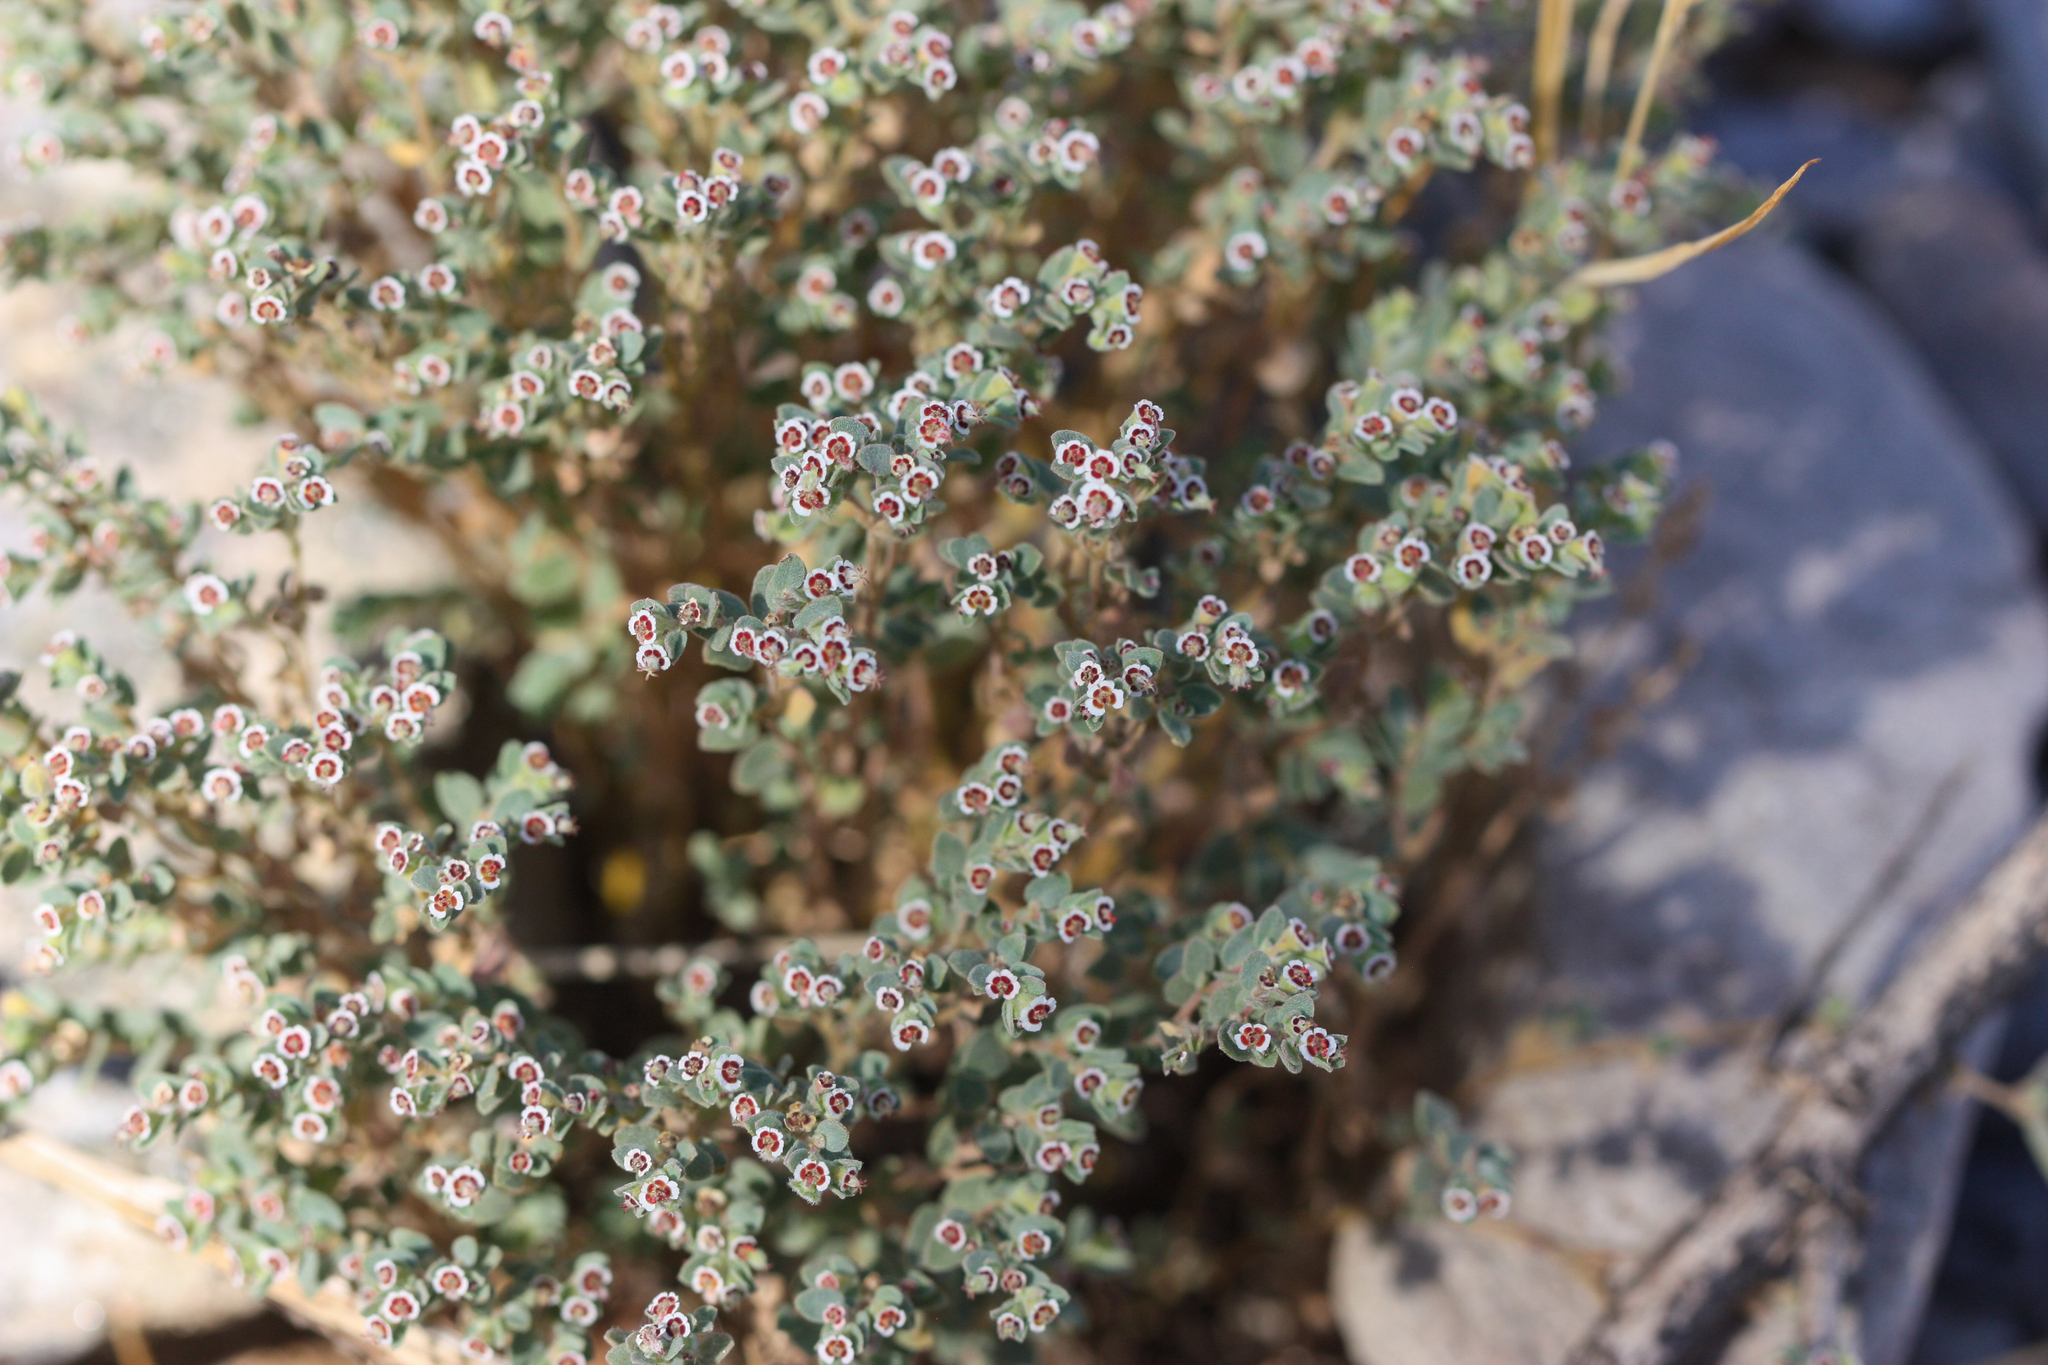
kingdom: Plantae
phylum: Tracheophyta
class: Magnoliopsida
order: Malpighiales
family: Euphorbiaceae
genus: Euphorbia
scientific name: Euphorbia melanadenia
